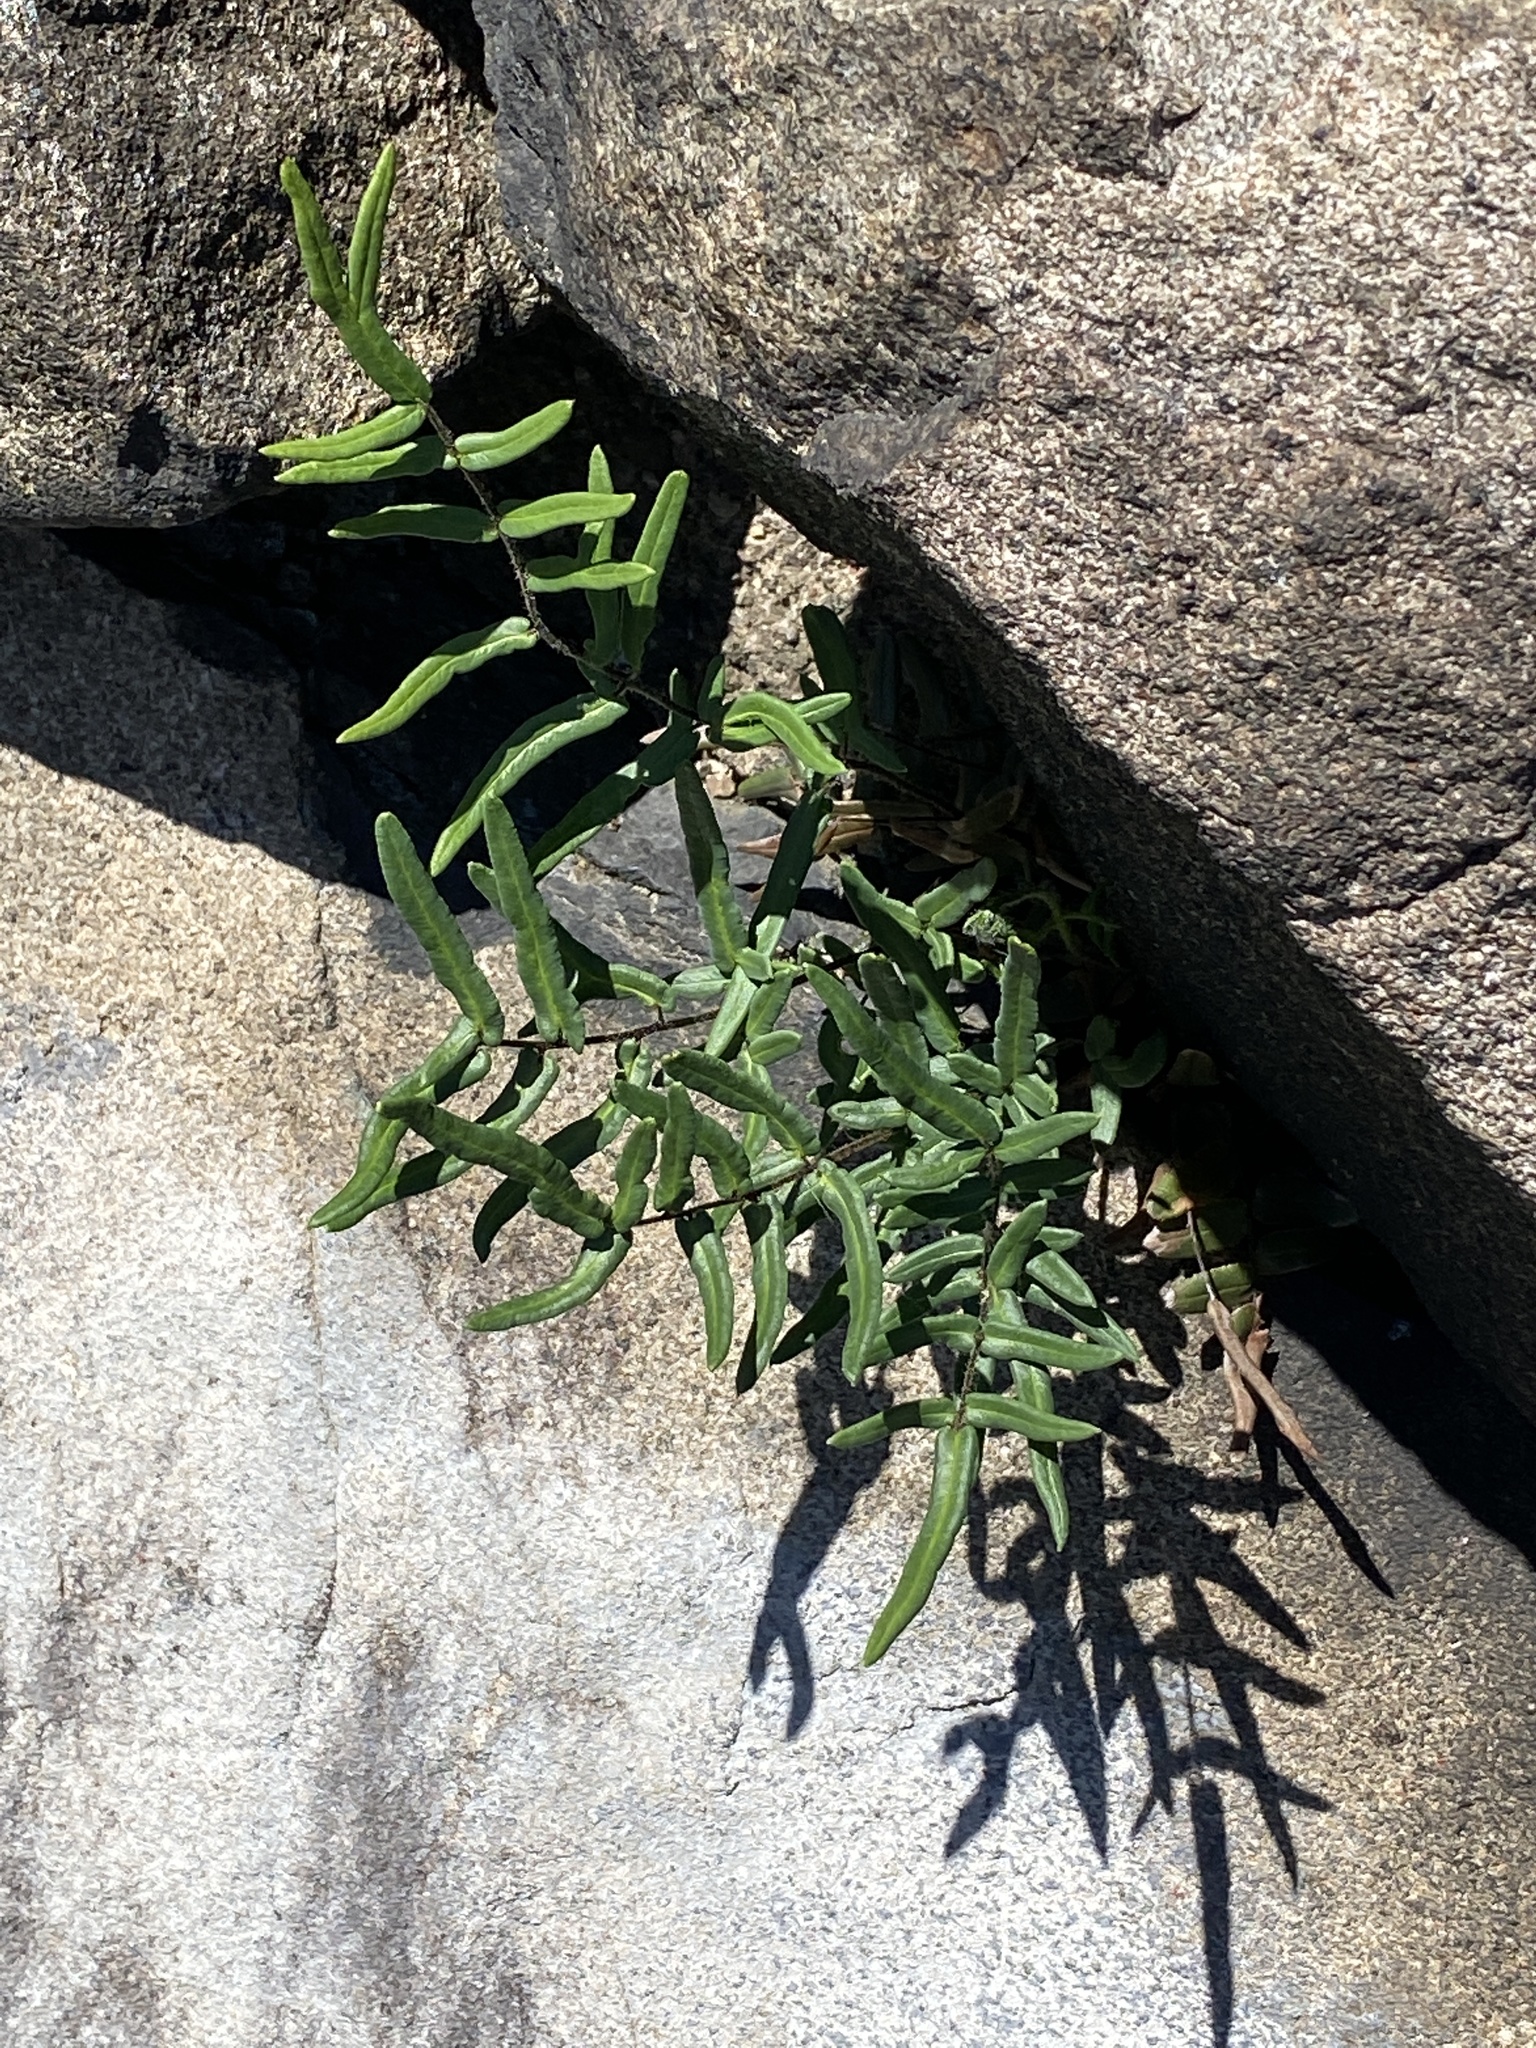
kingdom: Plantae
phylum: Tracheophyta
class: Polypodiopsida
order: Polypodiales
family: Pteridaceae
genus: Pellaea
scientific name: Pellaea atropurpurea
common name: Hairy cliffbrake
